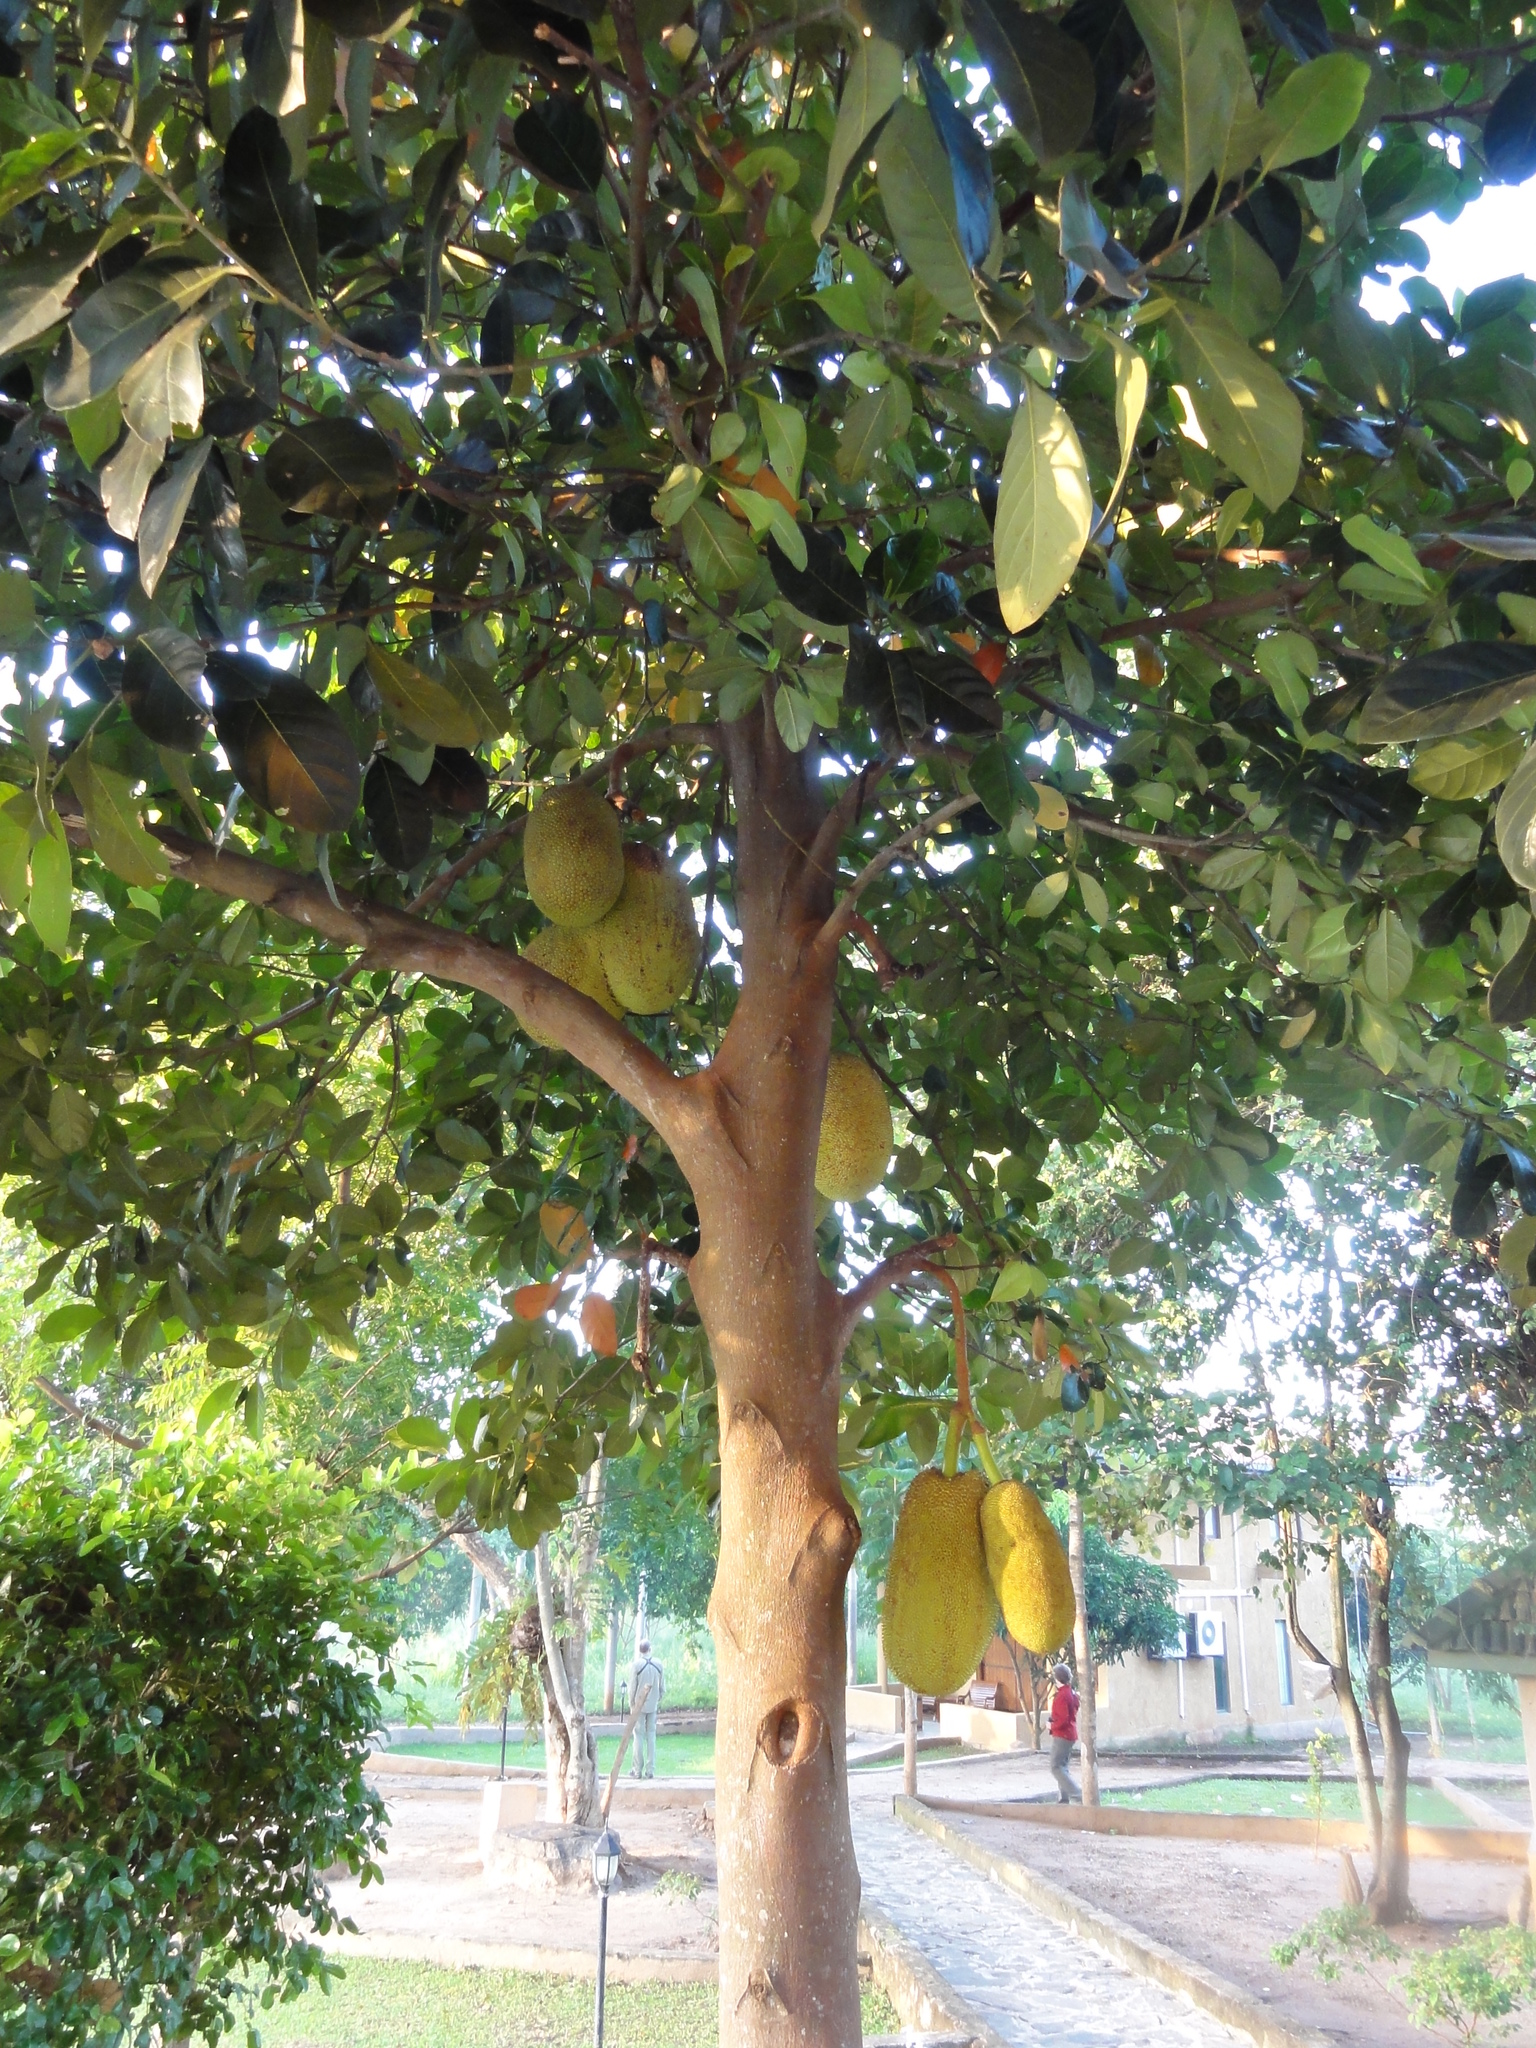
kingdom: Plantae
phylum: Tracheophyta
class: Magnoliopsida
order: Rosales
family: Moraceae
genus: Artocarpus
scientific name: Artocarpus heterophyllus
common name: Jackfruit
